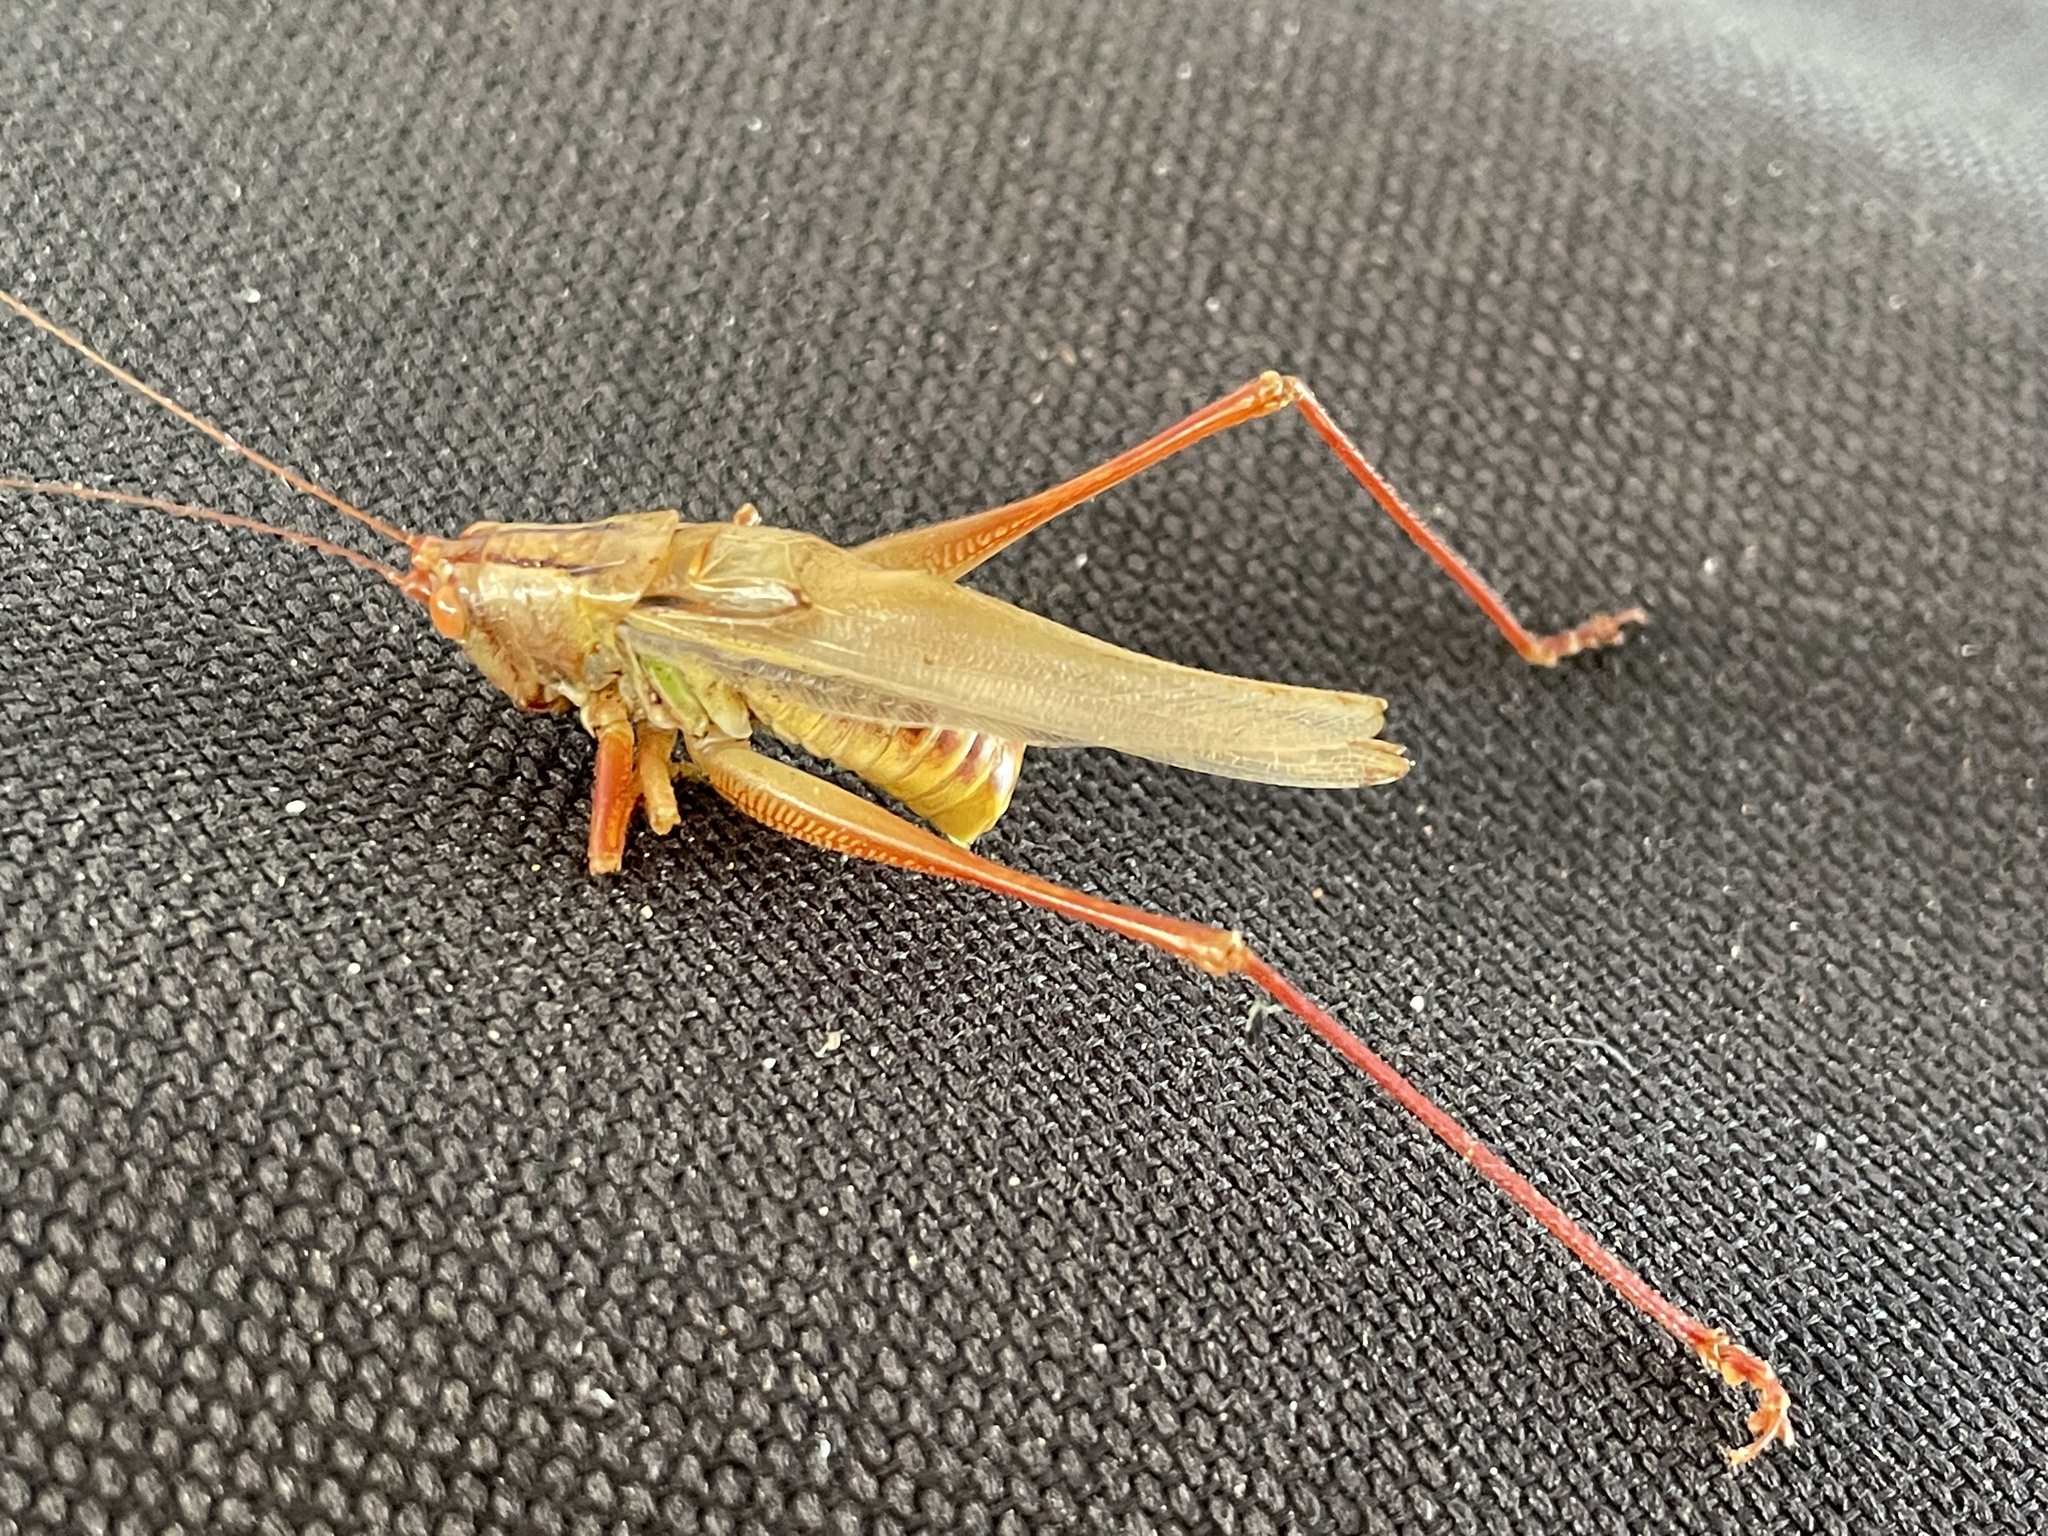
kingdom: Animalia
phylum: Arthropoda
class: Insecta
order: Orthoptera
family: Tettigoniidae
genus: Orchelimum
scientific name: Orchelimum vulgare
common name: Common meadow katydid
